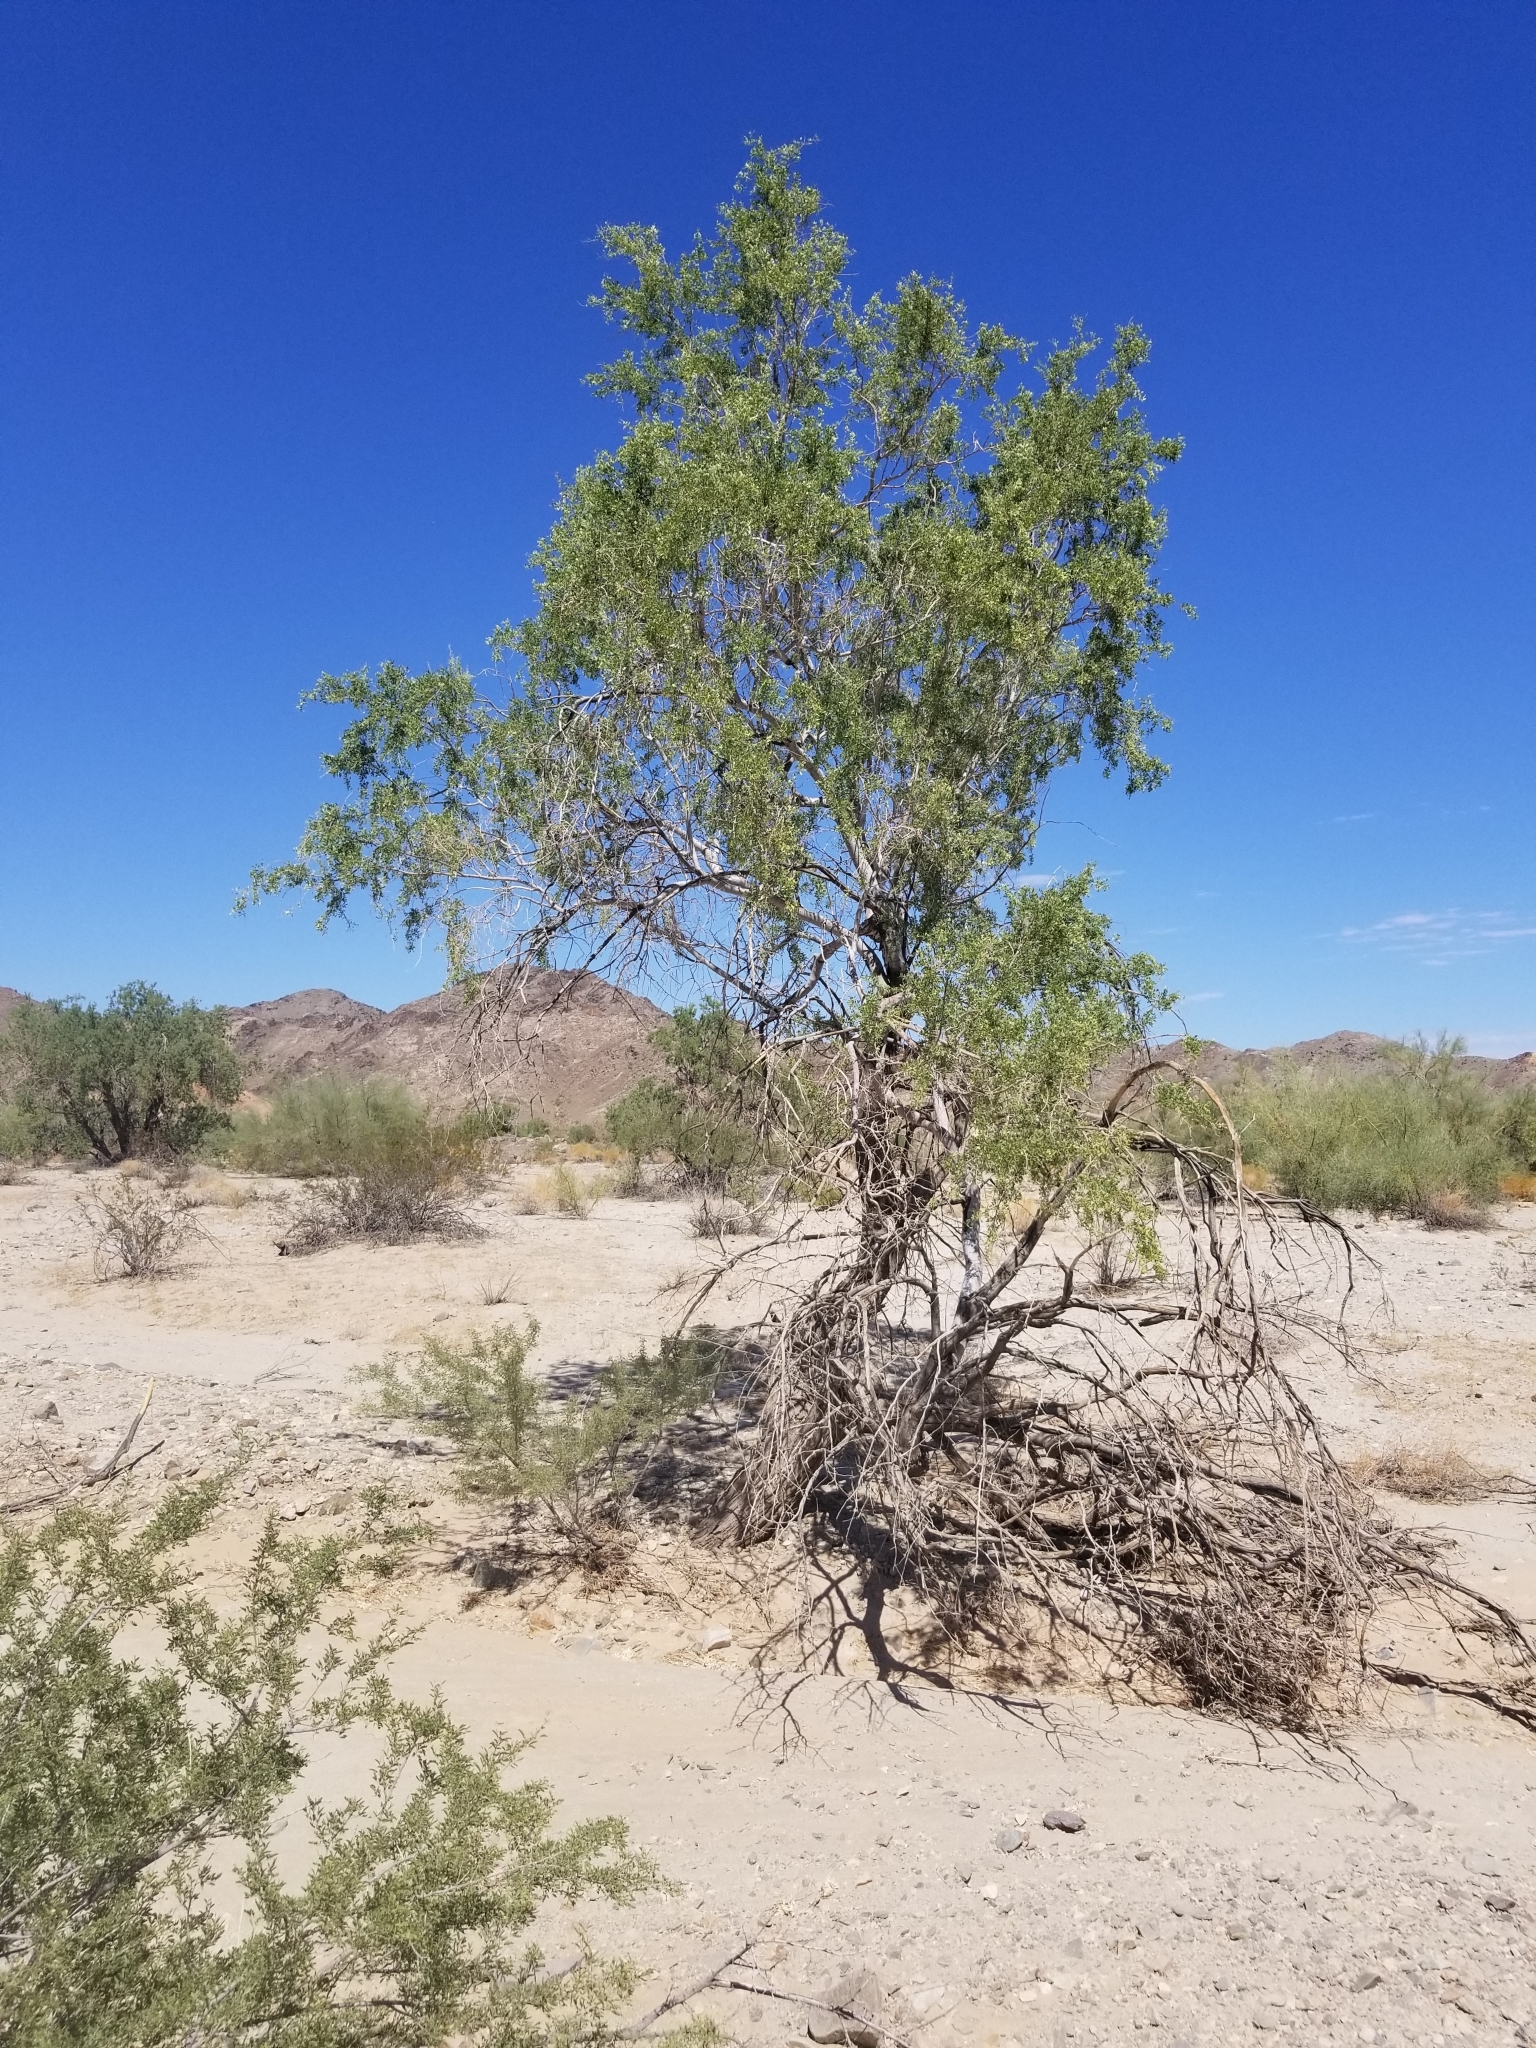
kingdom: Plantae
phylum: Tracheophyta
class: Magnoliopsida
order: Fabales
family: Fabaceae
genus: Olneya
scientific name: Olneya tesota
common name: Desert ironwood
